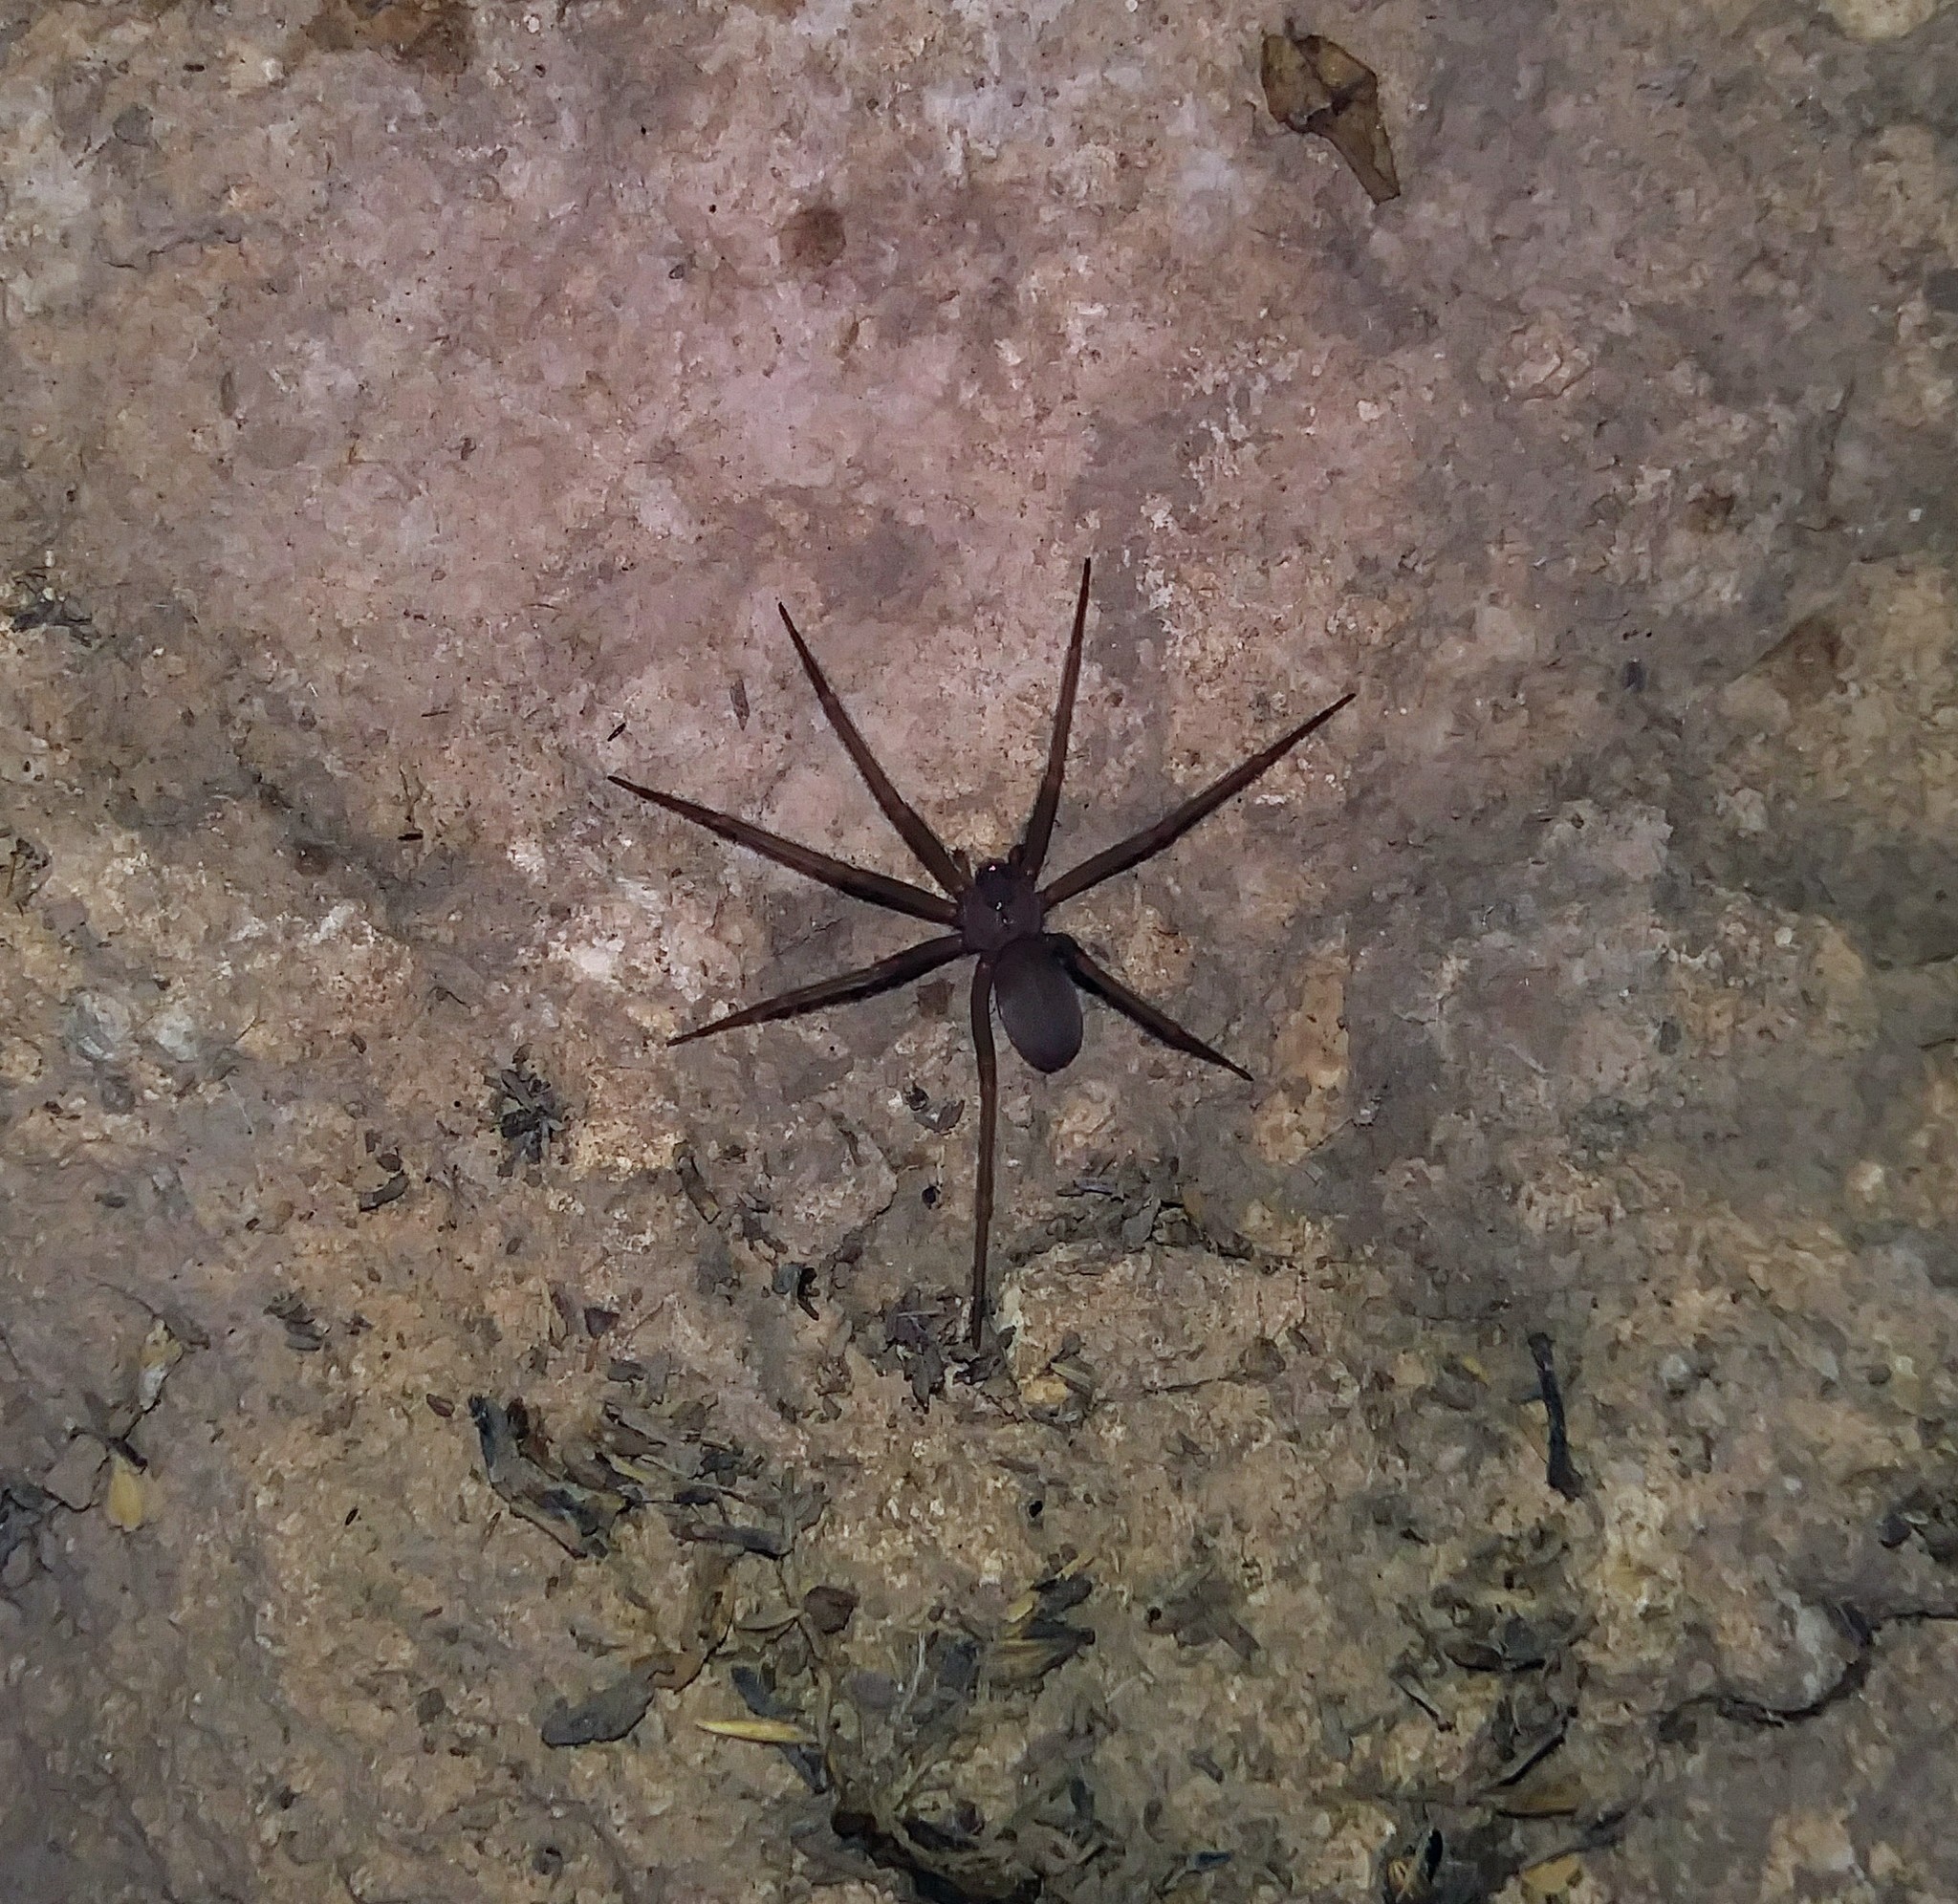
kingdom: Animalia
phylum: Arthropoda
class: Arachnida
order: Araneae
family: Sicariidae
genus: Loxosceles
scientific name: Loxosceles apachea
